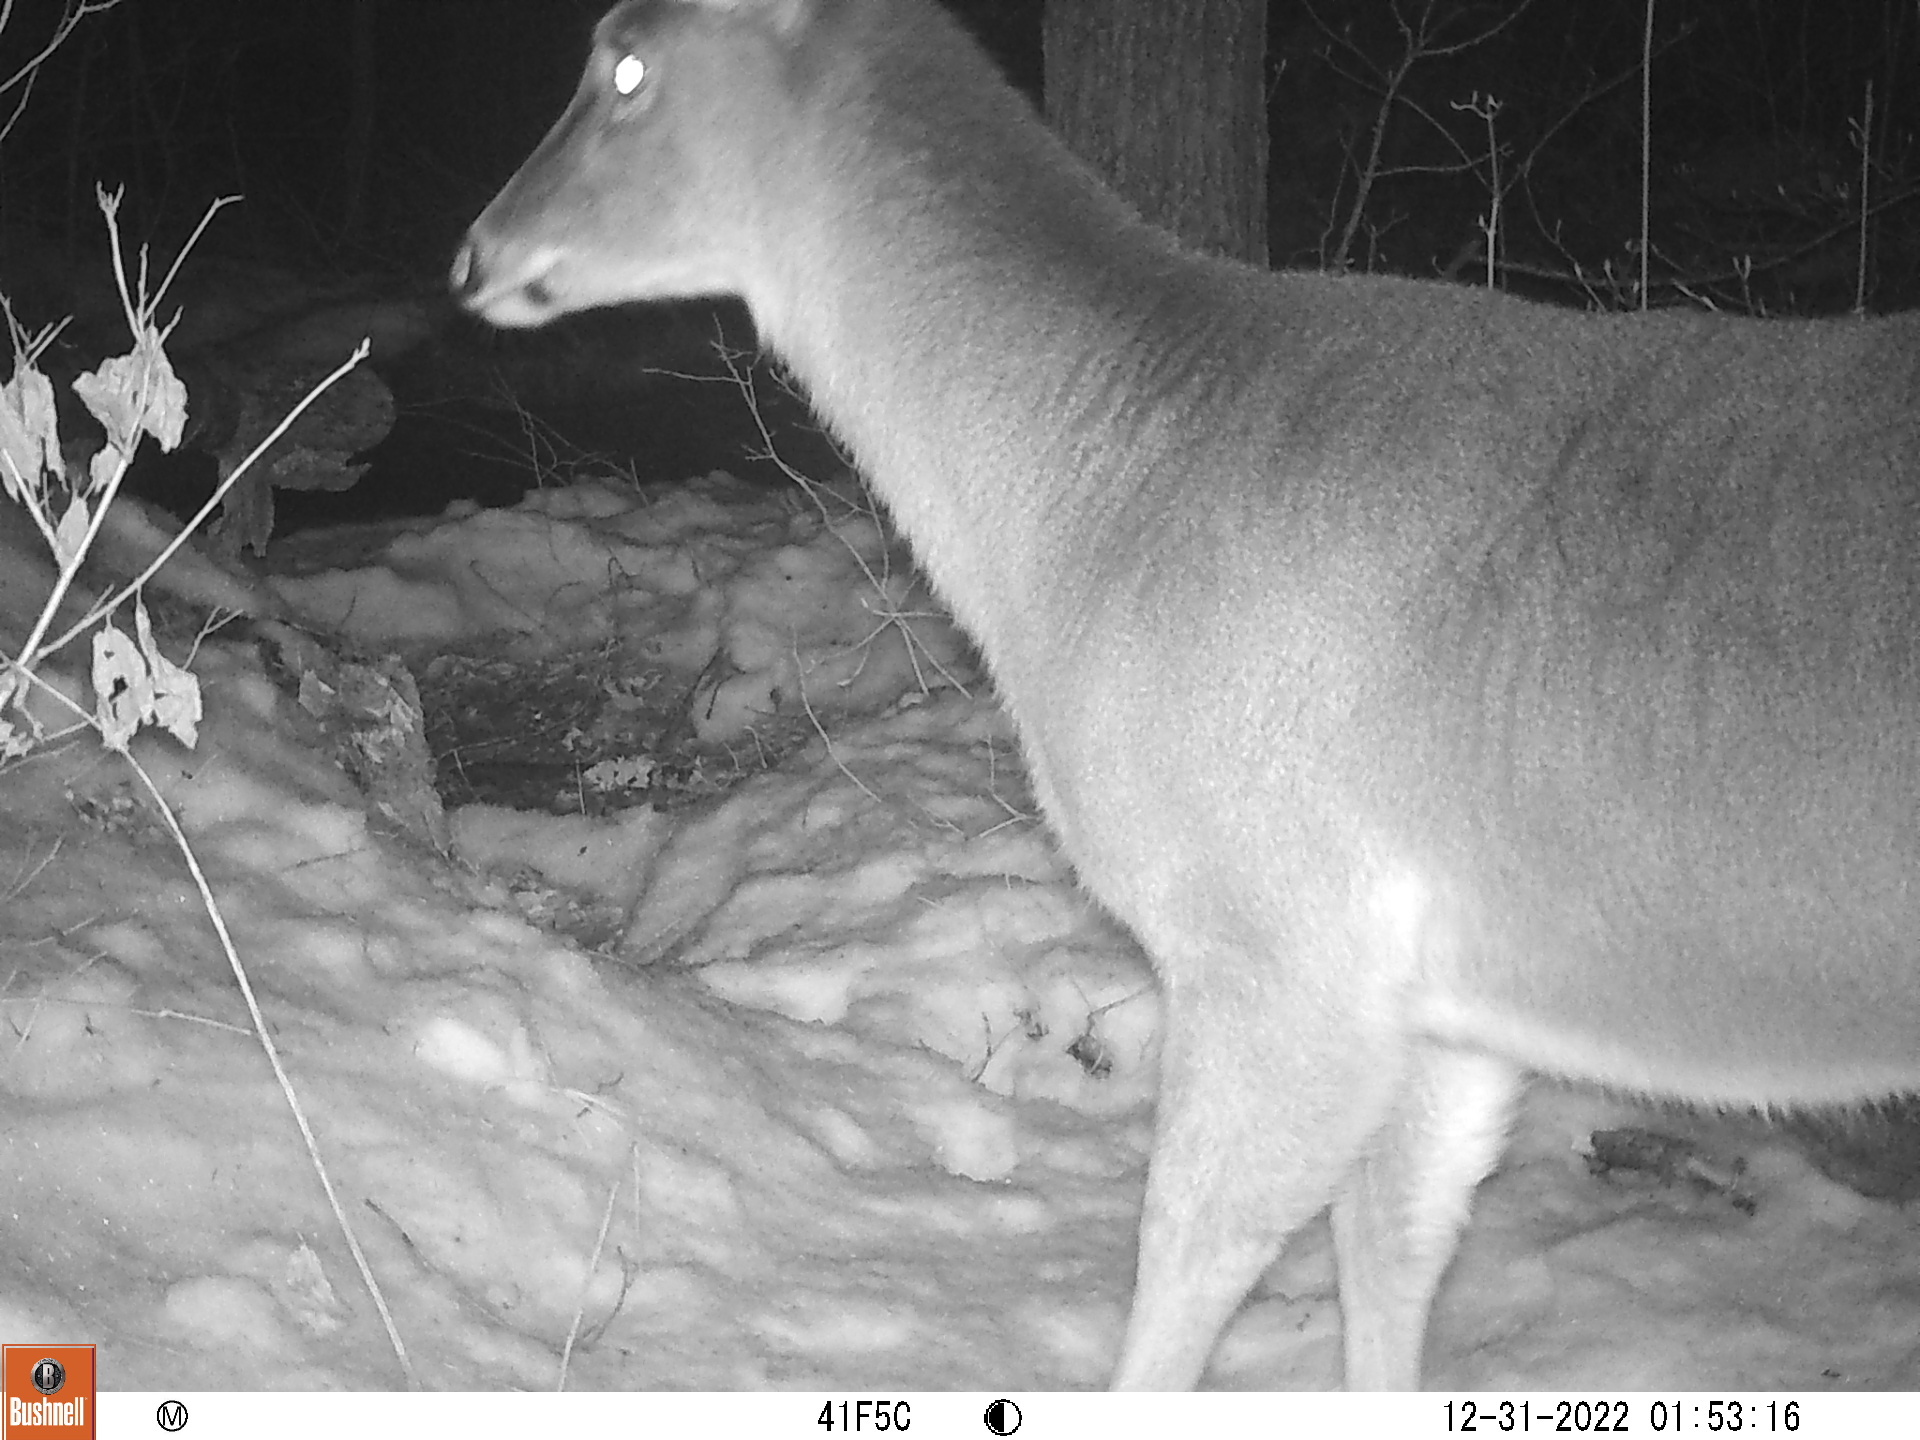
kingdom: Animalia
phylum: Chordata
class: Mammalia
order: Artiodactyla
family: Cervidae
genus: Odocoileus
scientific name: Odocoileus virginianus
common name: White-tailed deer
